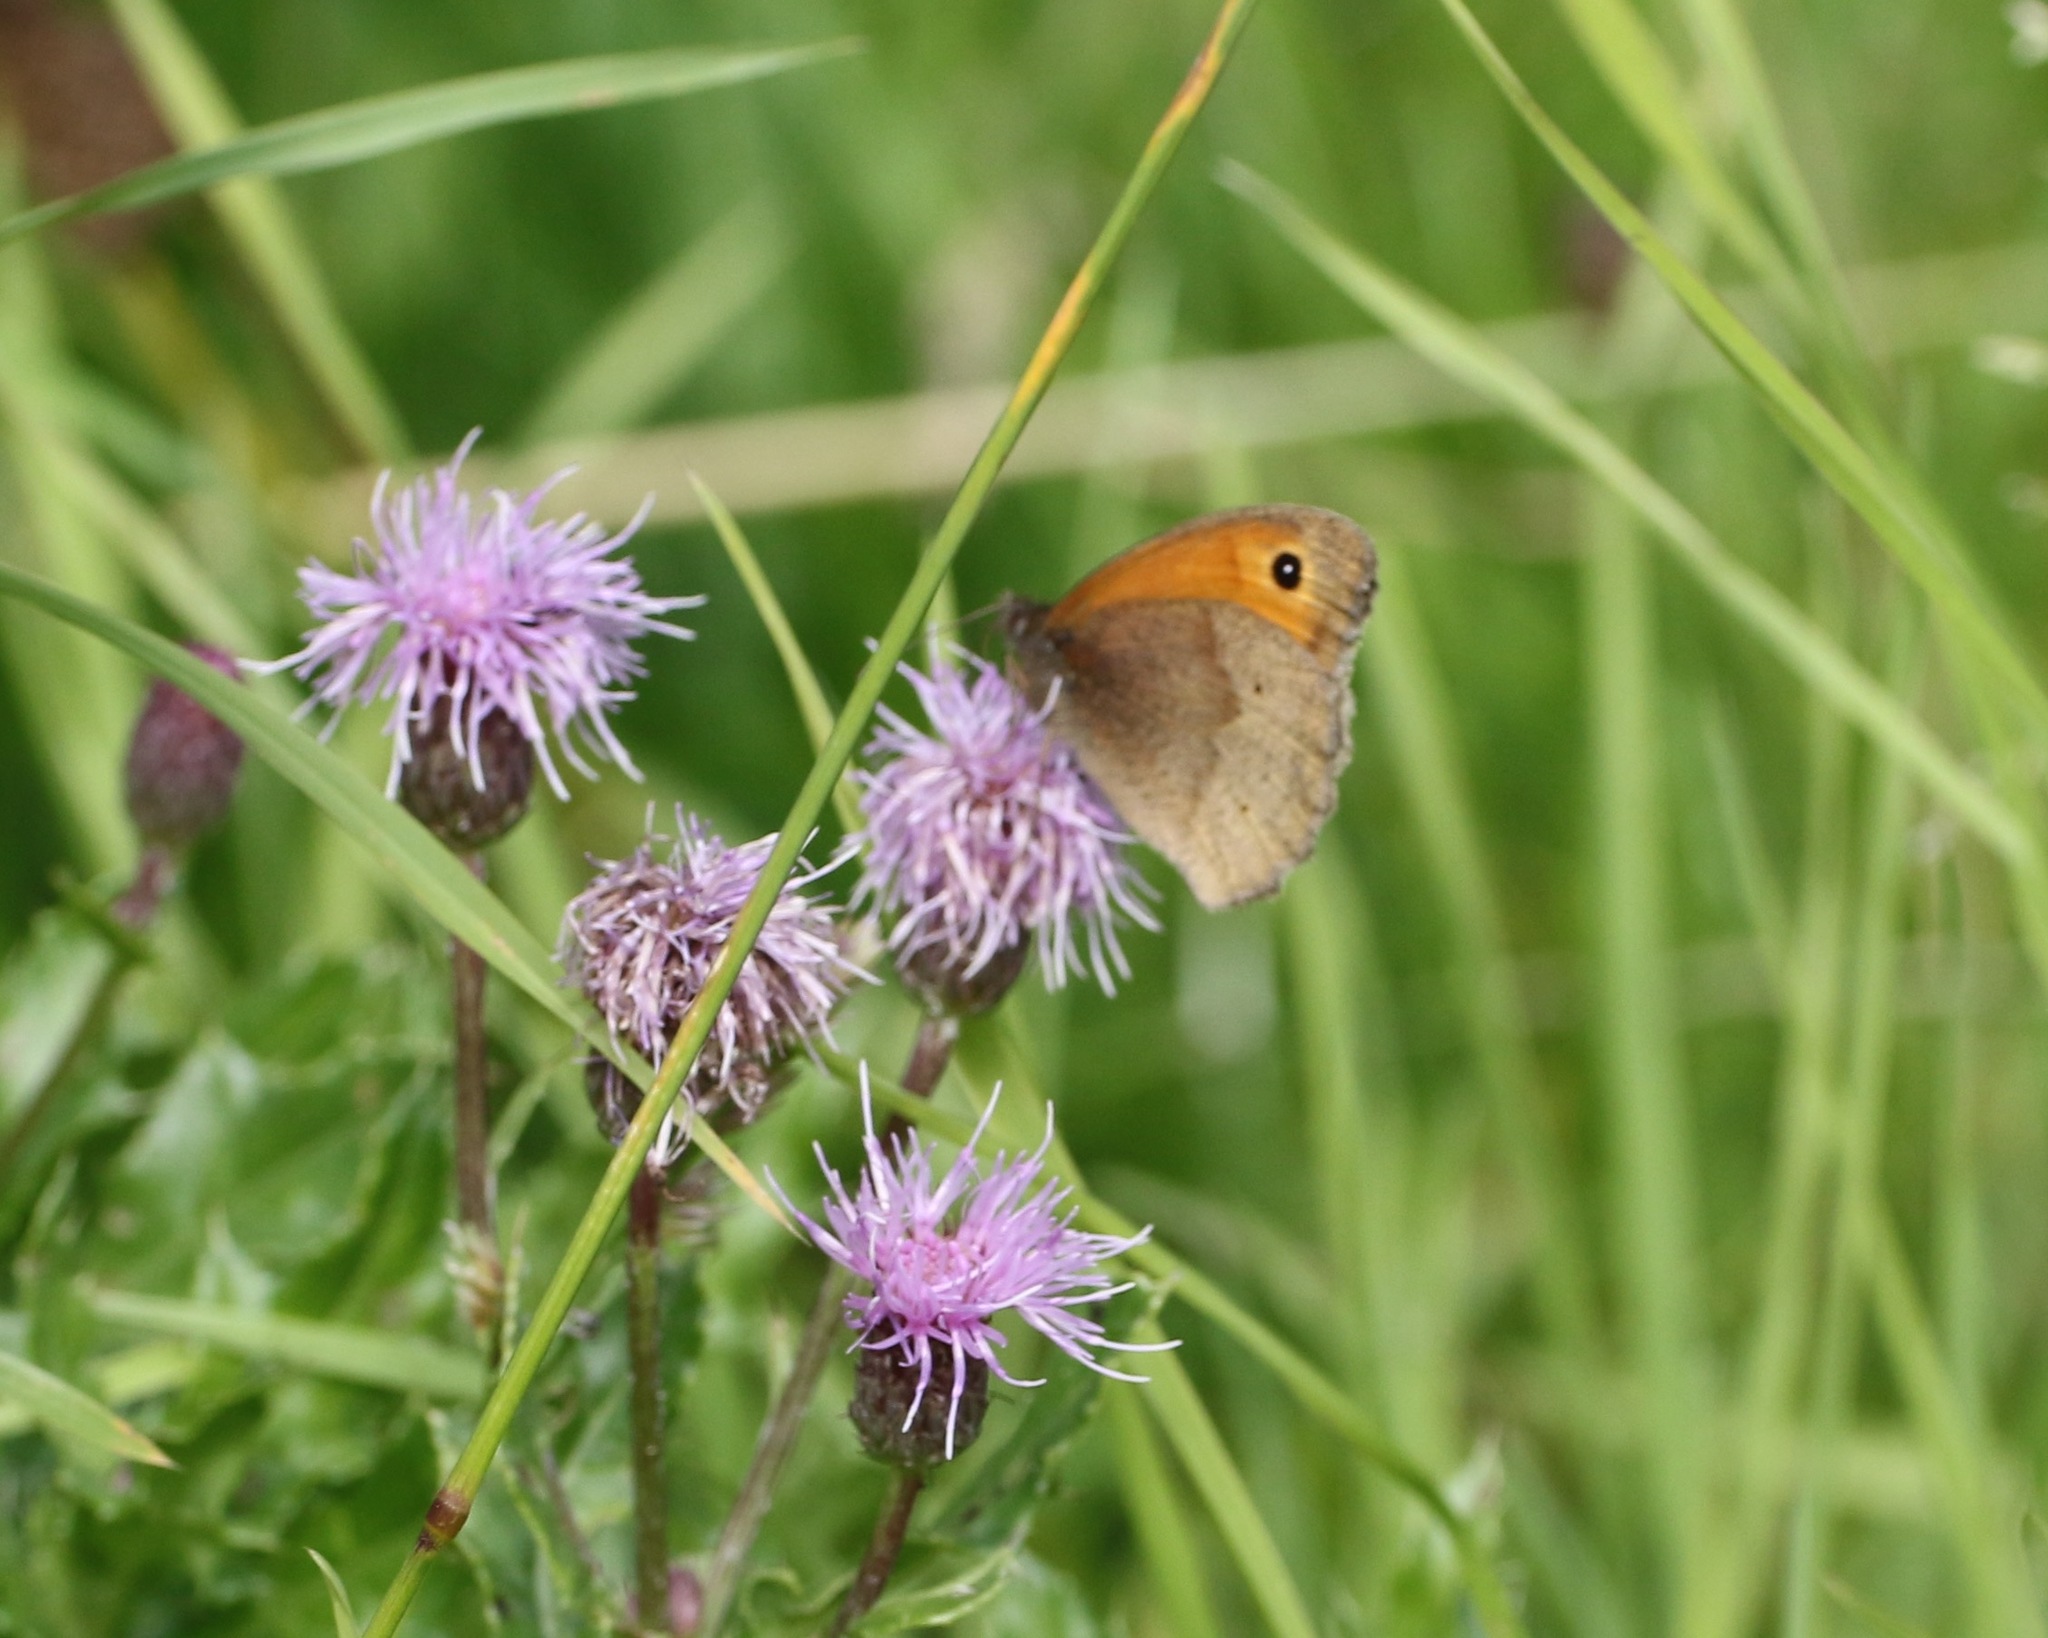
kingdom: Animalia
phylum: Arthropoda
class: Insecta
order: Lepidoptera
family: Nymphalidae
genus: Maniola
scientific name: Maniola jurtina
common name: Meadow brown
